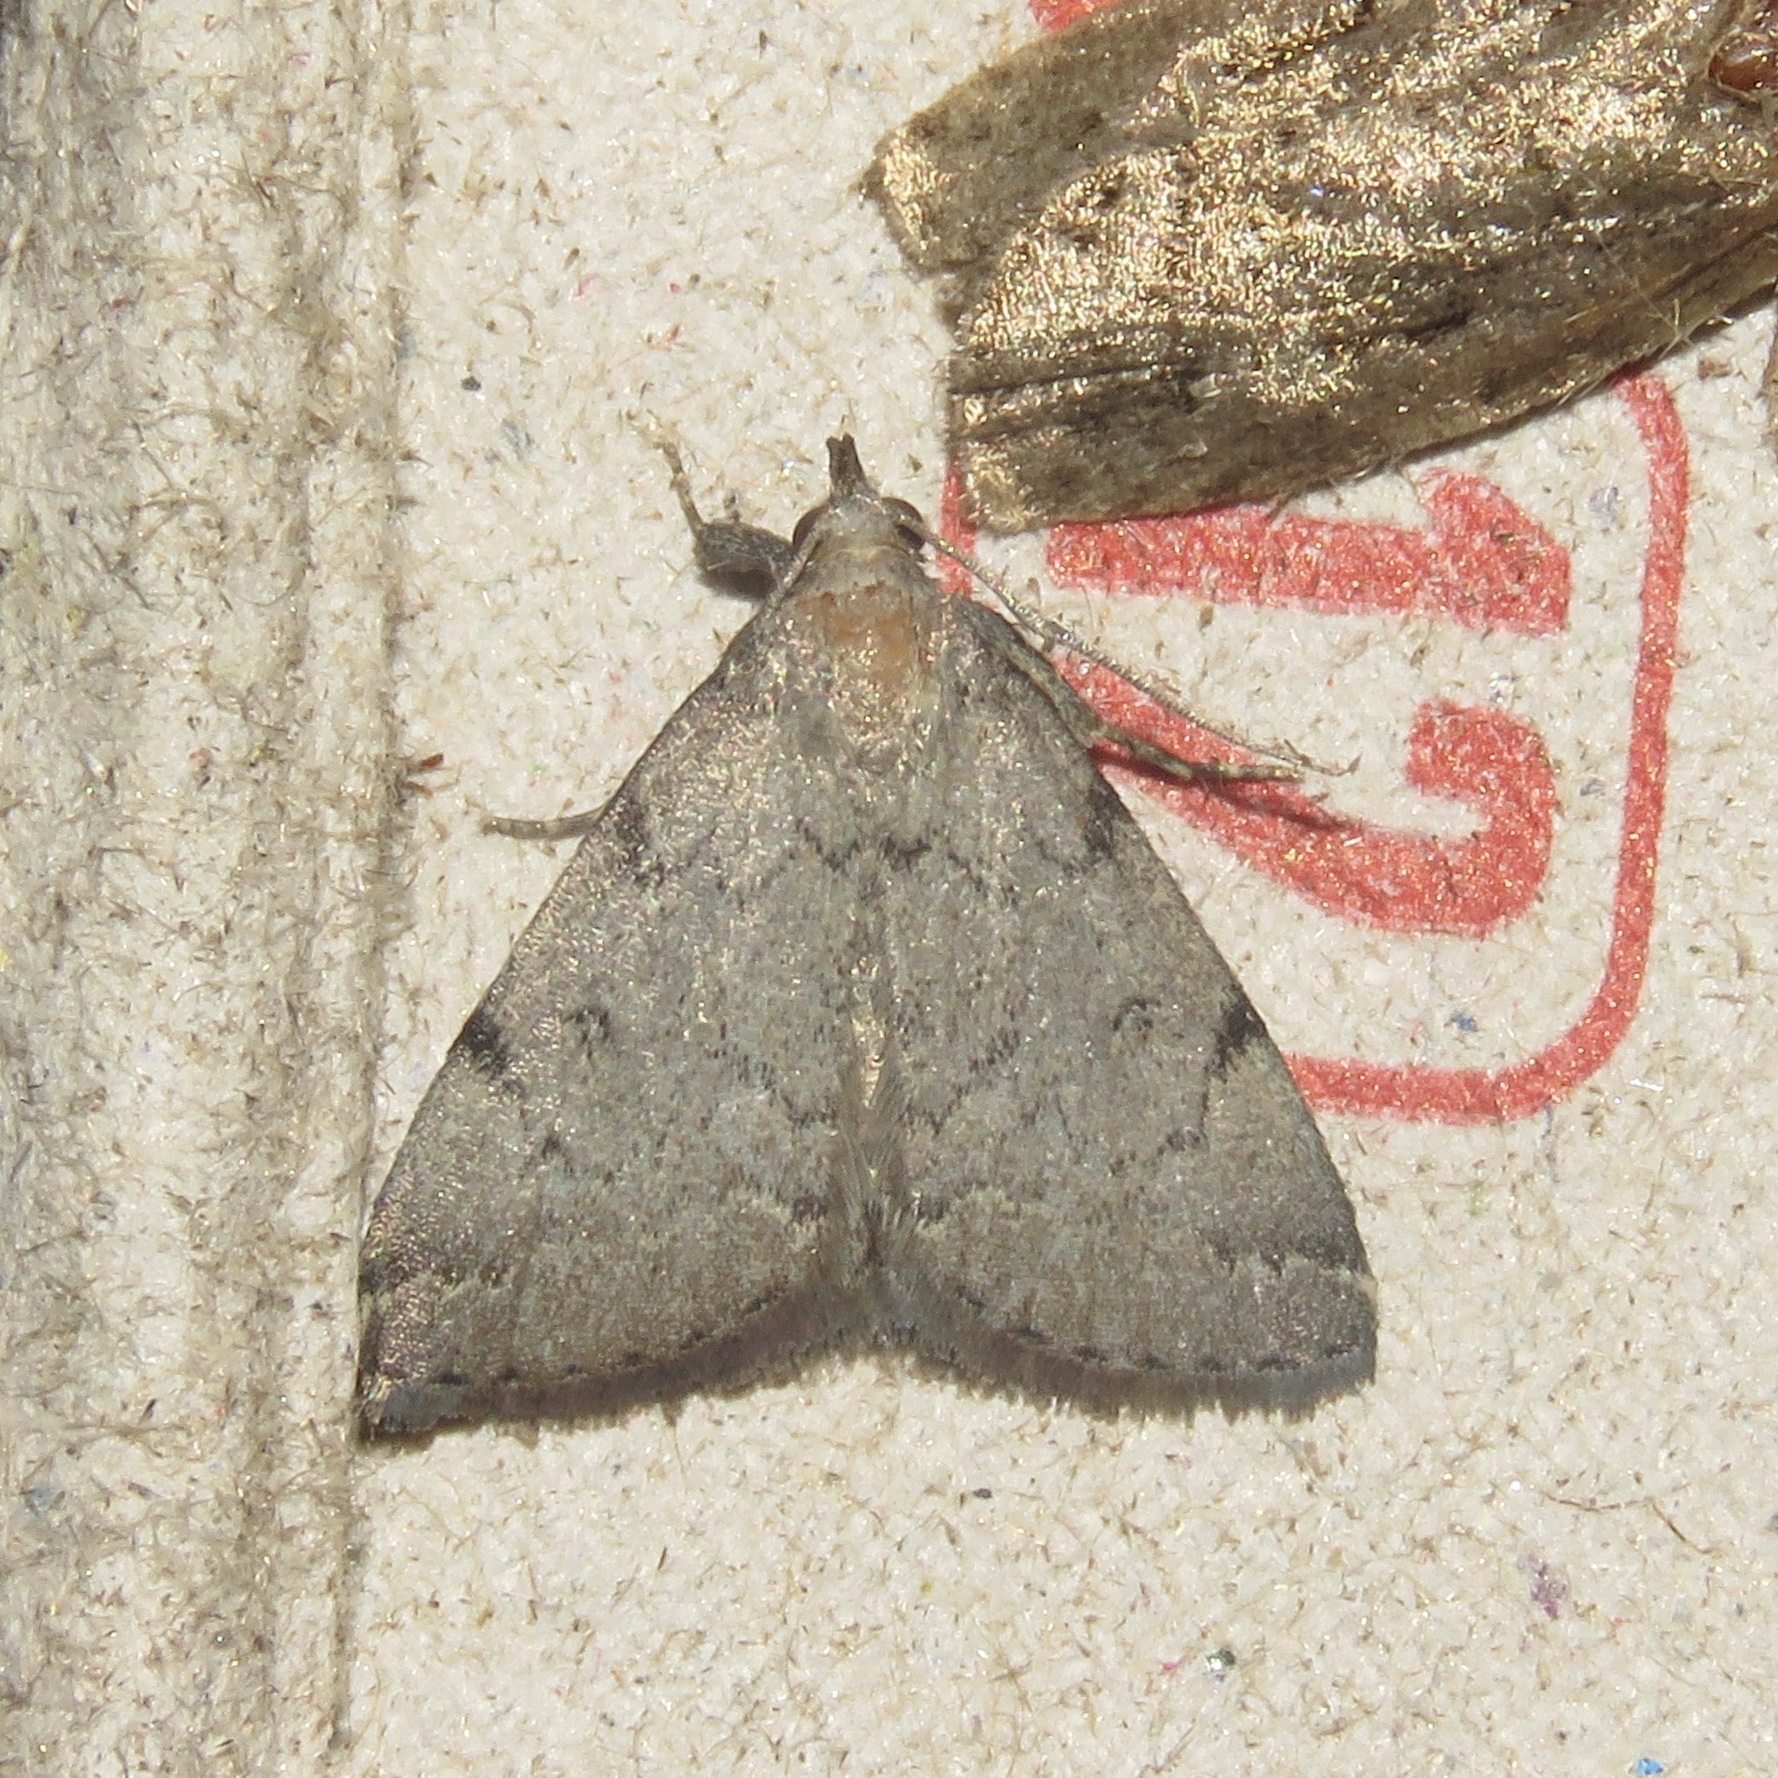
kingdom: Animalia
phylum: Arthropoda
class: Insecta
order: Lepidoptera
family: Erebidae
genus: Zanclognatha
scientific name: Zanclognatha theralis
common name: Flagged fan-foot
